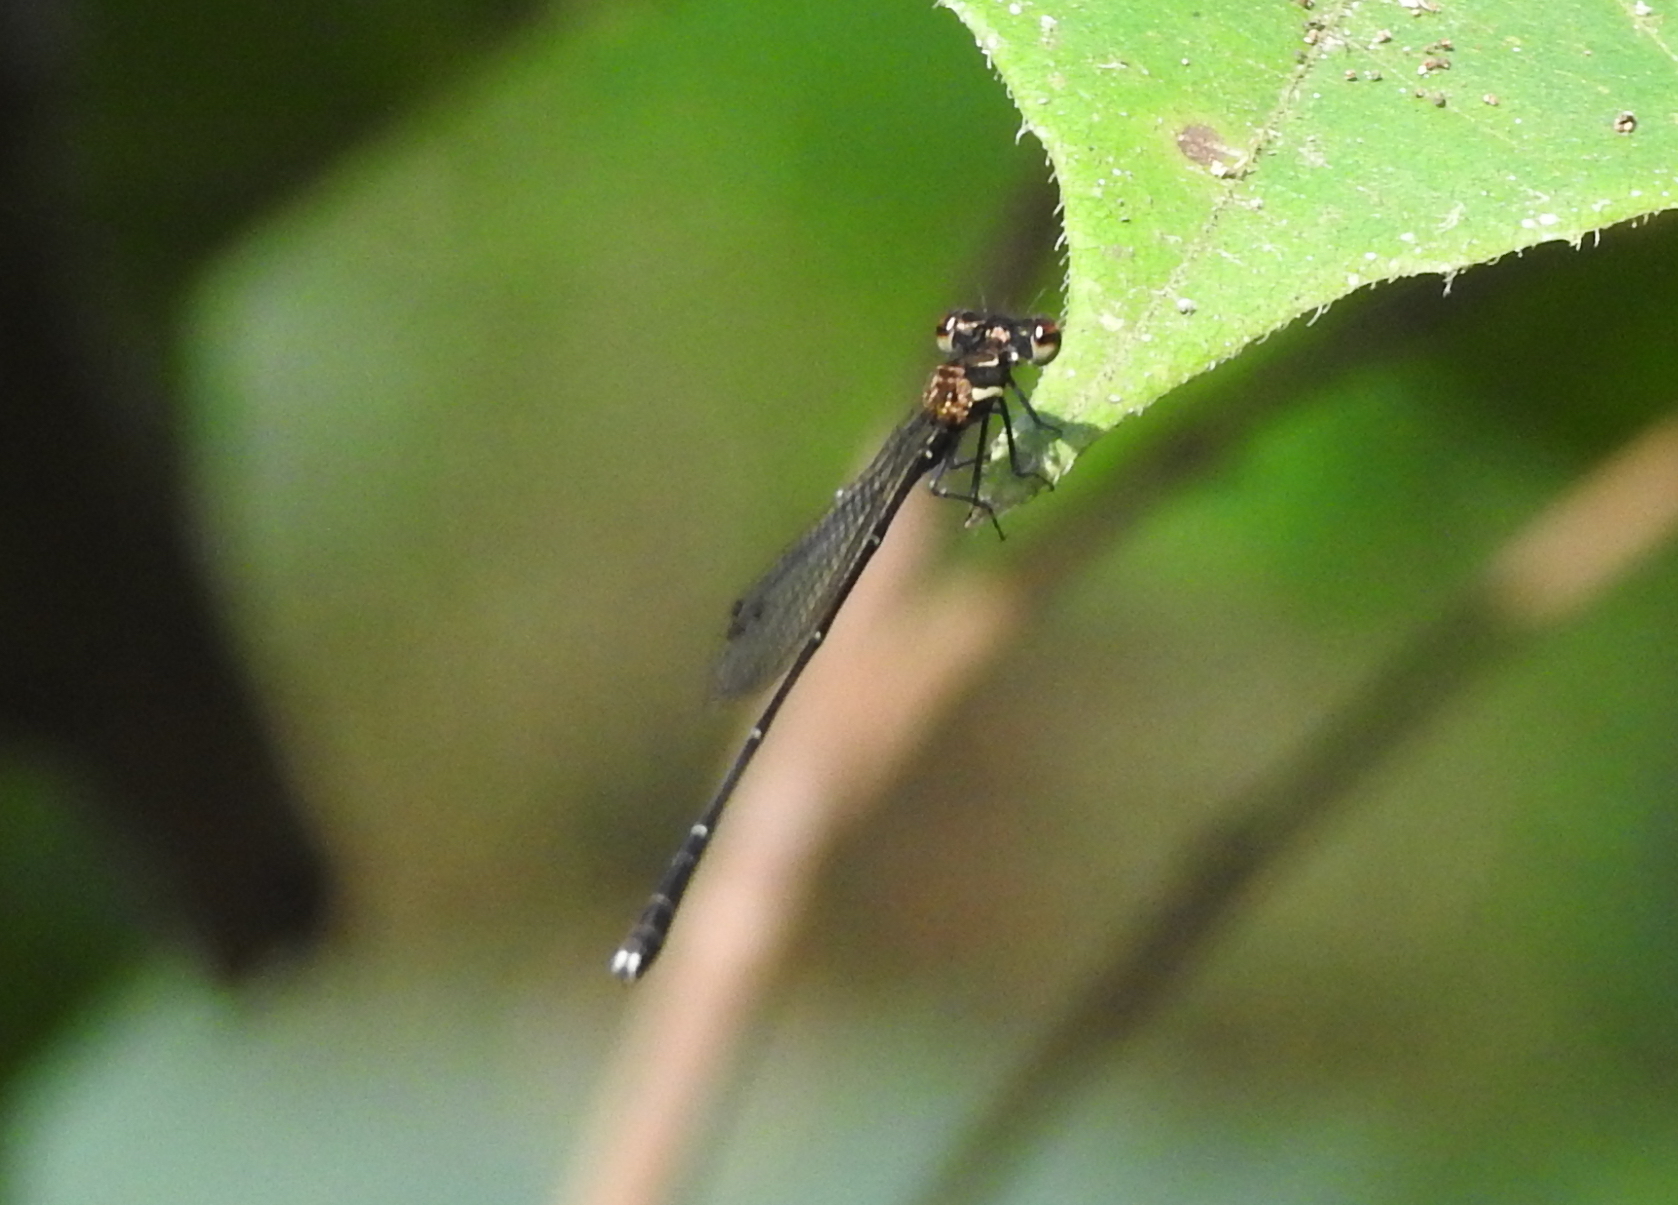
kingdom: Animalia
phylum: Arthropoda
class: Insecta
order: Odonata
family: Platycnemididae
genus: Prodasineura
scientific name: Prodasineura autumnalis
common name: Black threadtail
